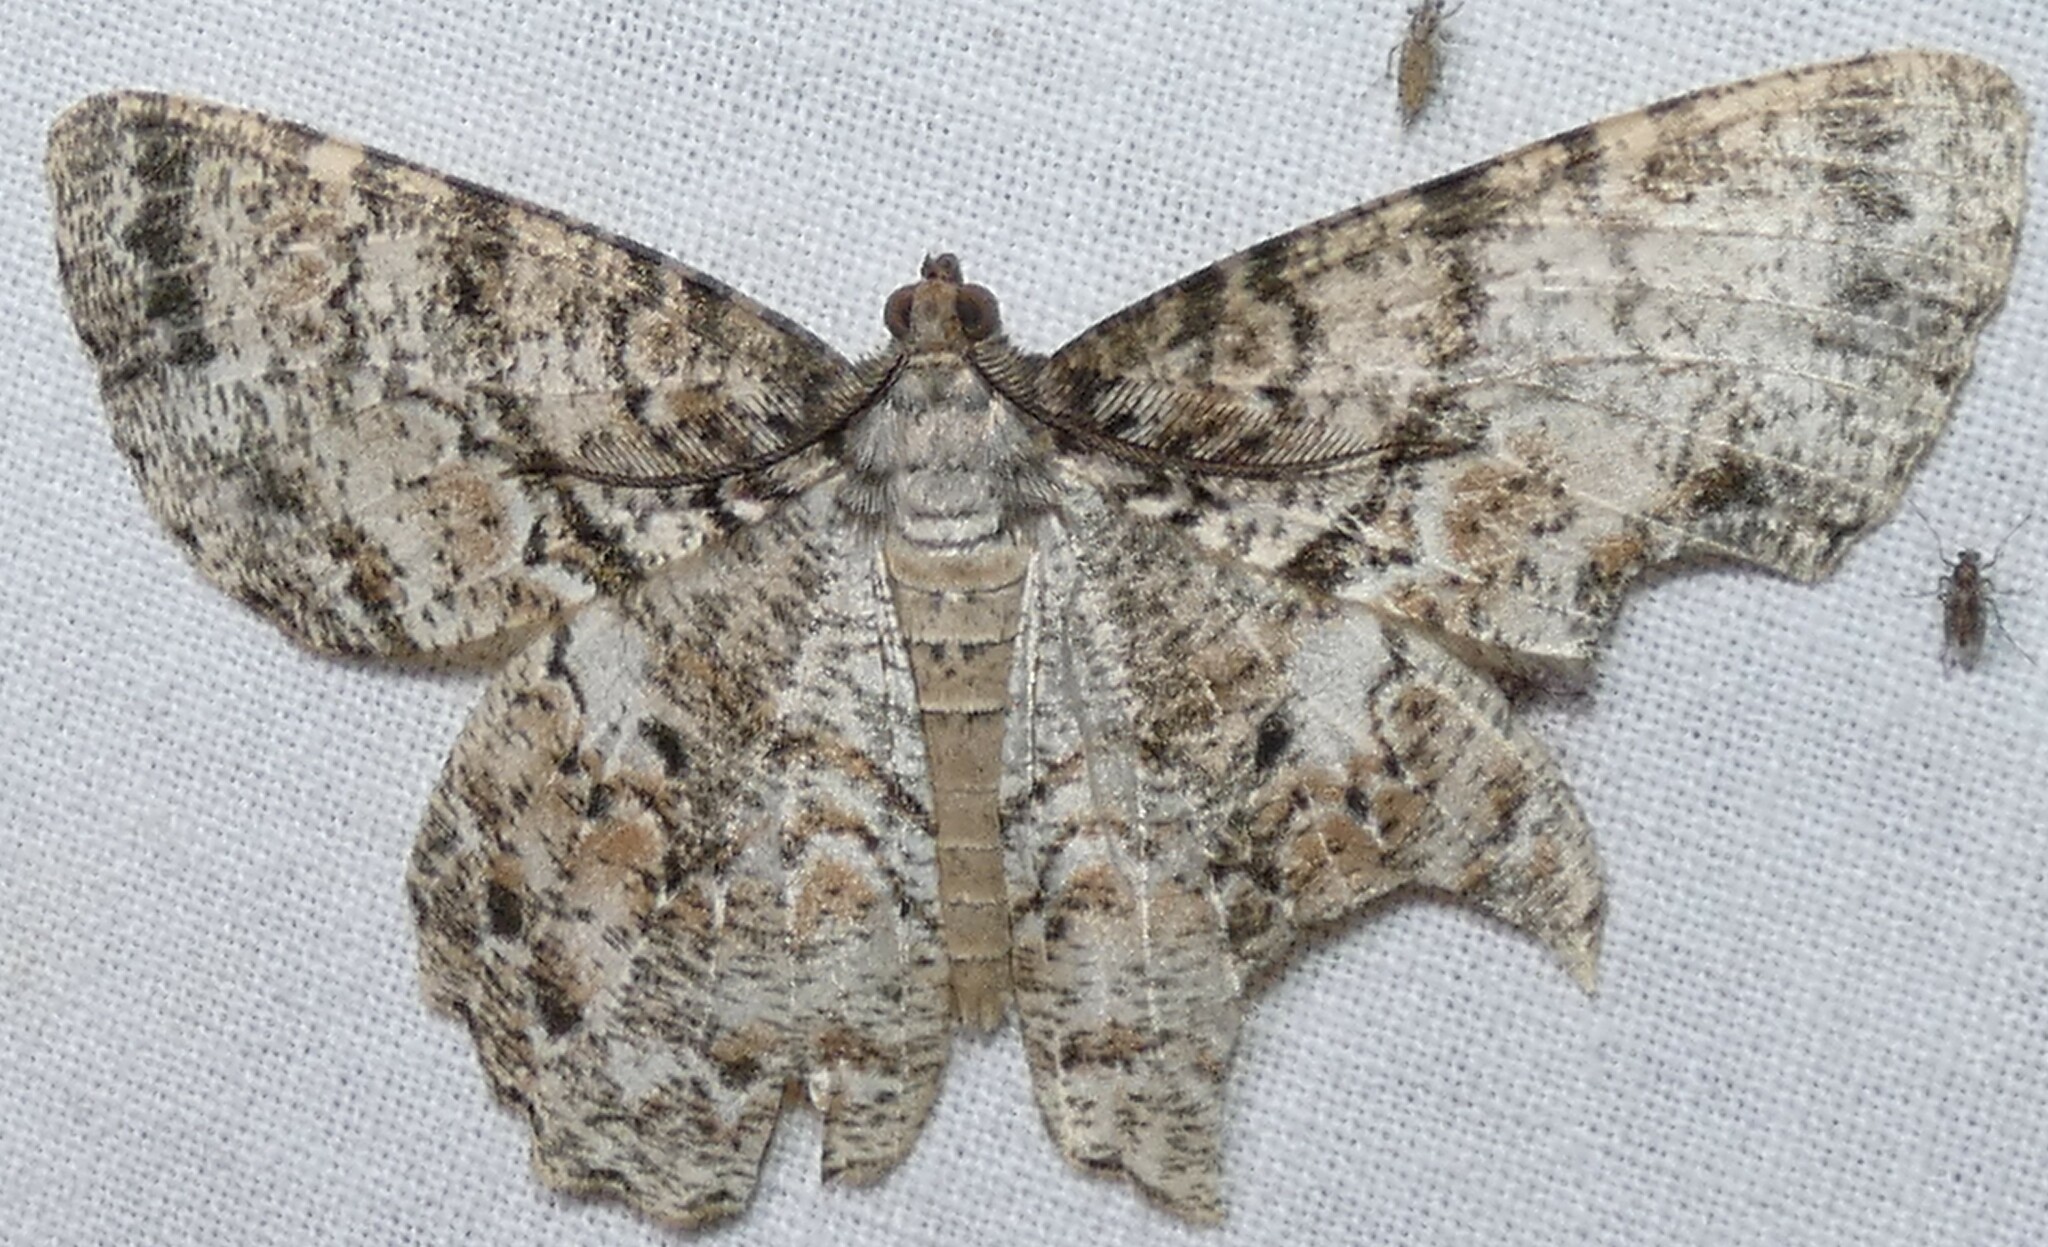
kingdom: Animalia
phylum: Arthropoda
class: Insecta
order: Lepidoptera
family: Geometridae
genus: Epimecis
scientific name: Epimecis hortaria
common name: Tulip-tree beauty
